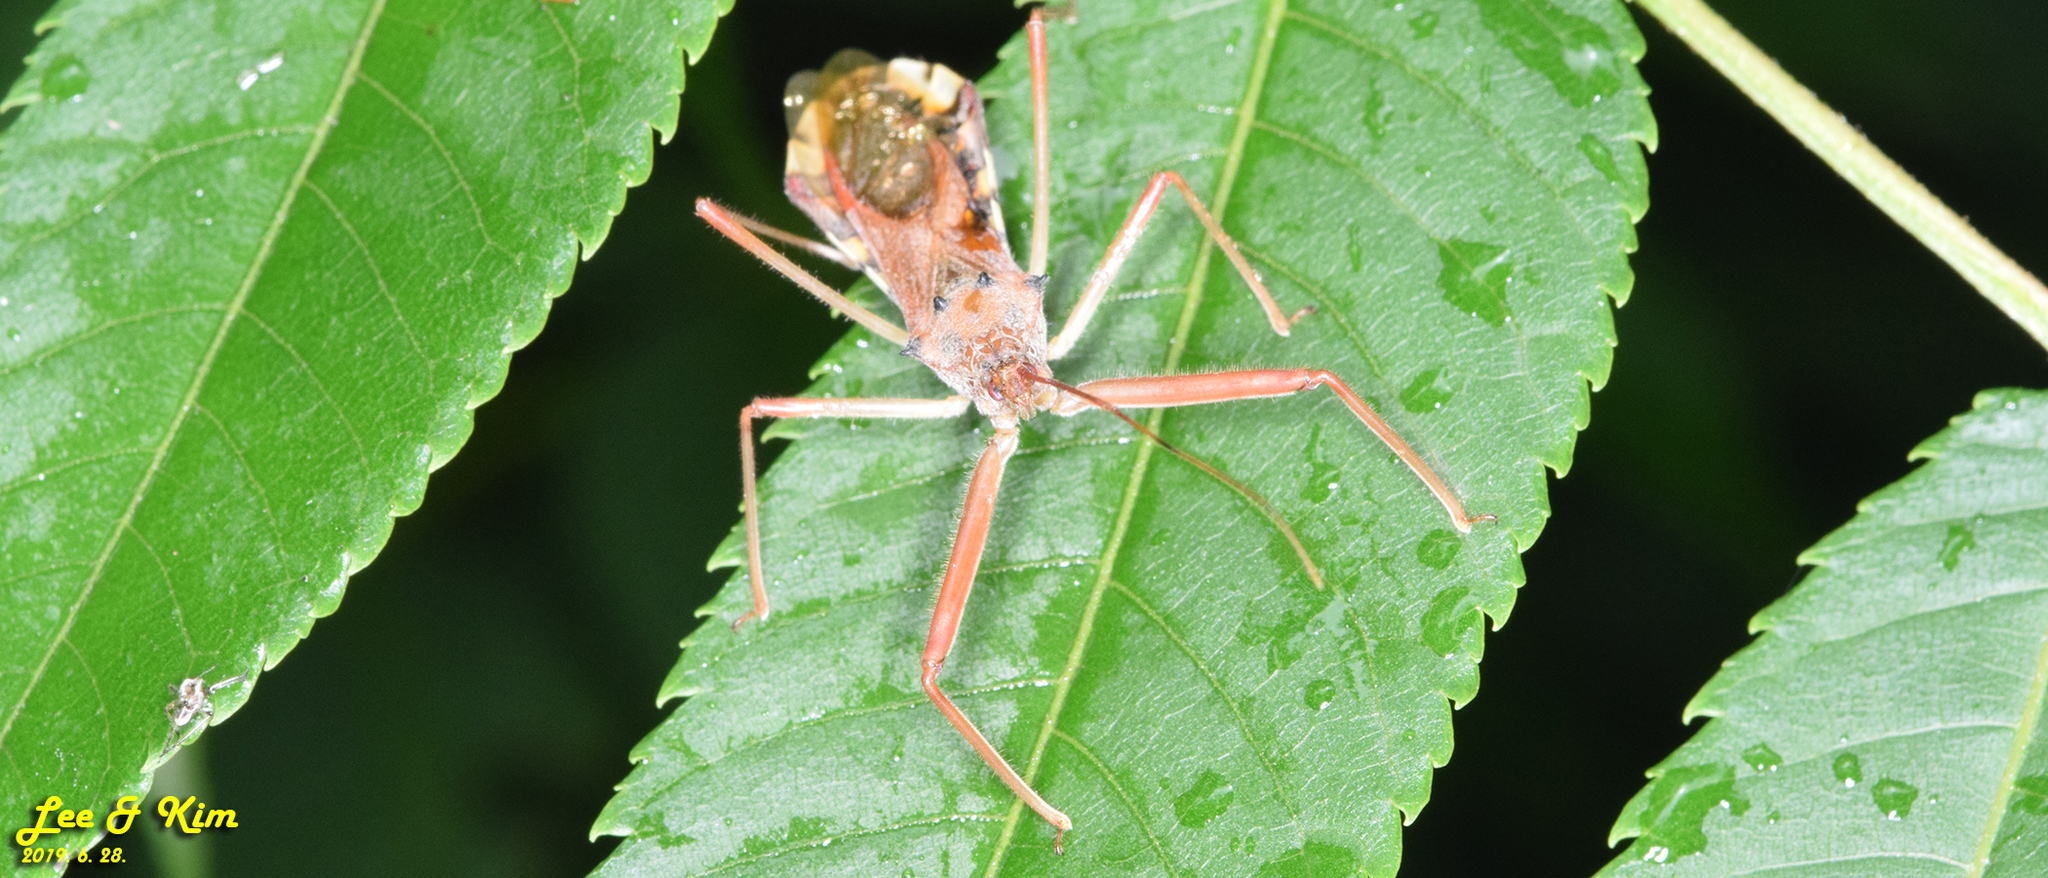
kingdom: Animalia
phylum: Arthropoda
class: Insecta
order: Hemiptera
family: Reduviidae
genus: Epidaus
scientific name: Epidaus tuberosus
